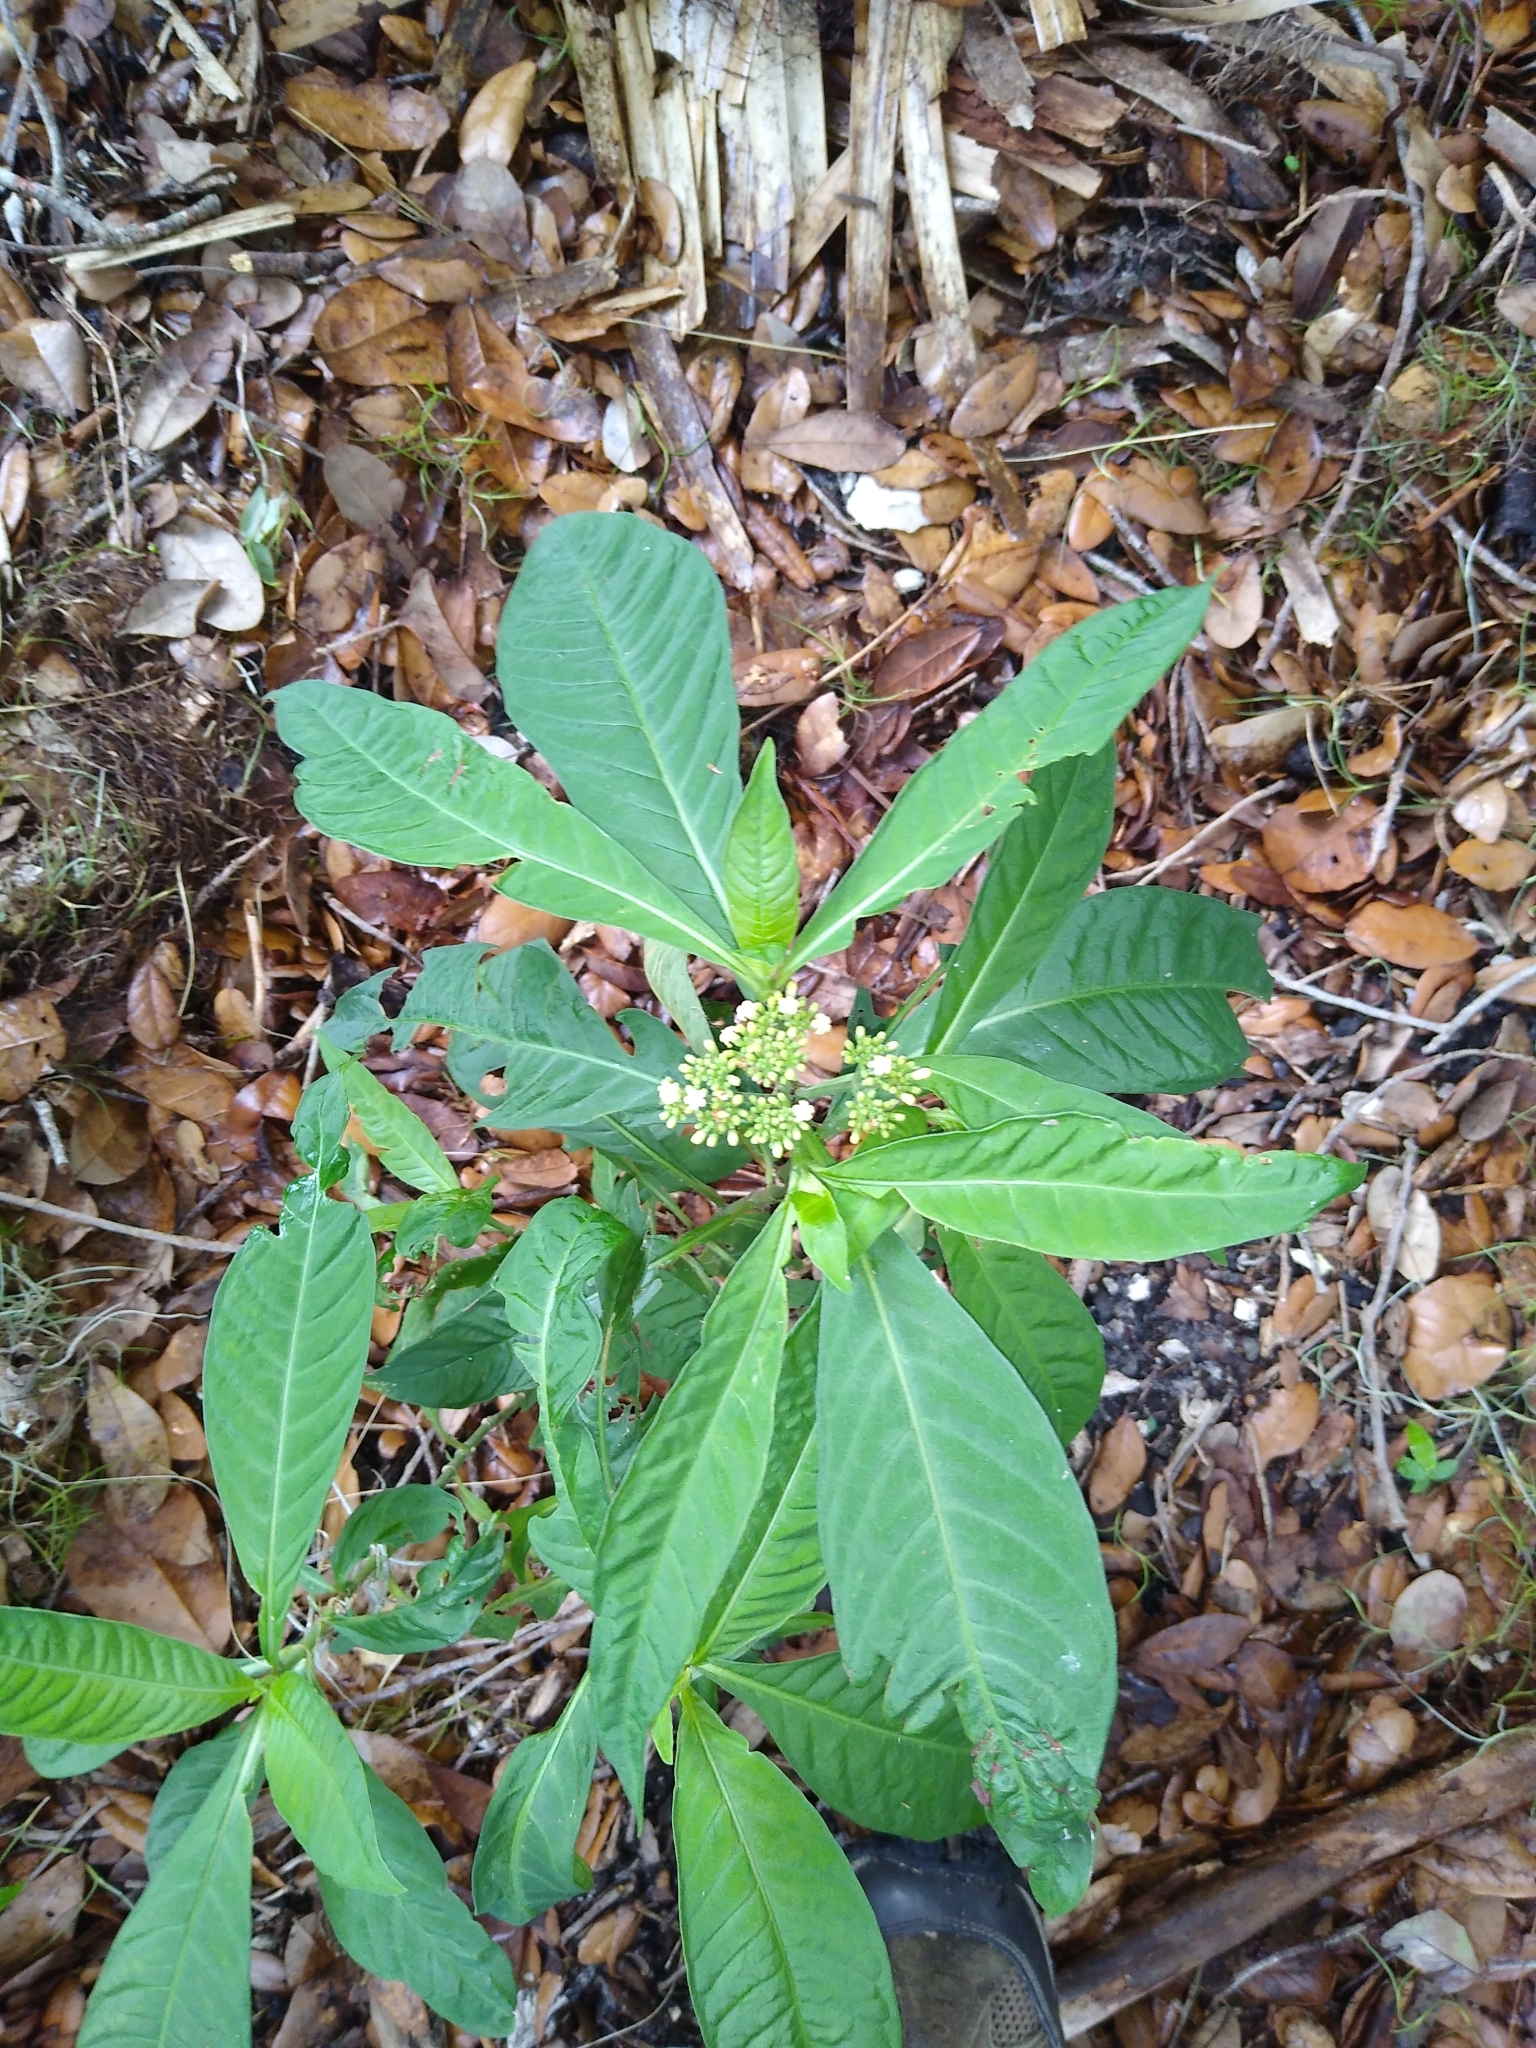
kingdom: Plantae
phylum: Tracheophyta
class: Magnoliopsida
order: Gentianales
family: Rubiaceae
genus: Psychotria
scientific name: Psychotria tenuifolia
